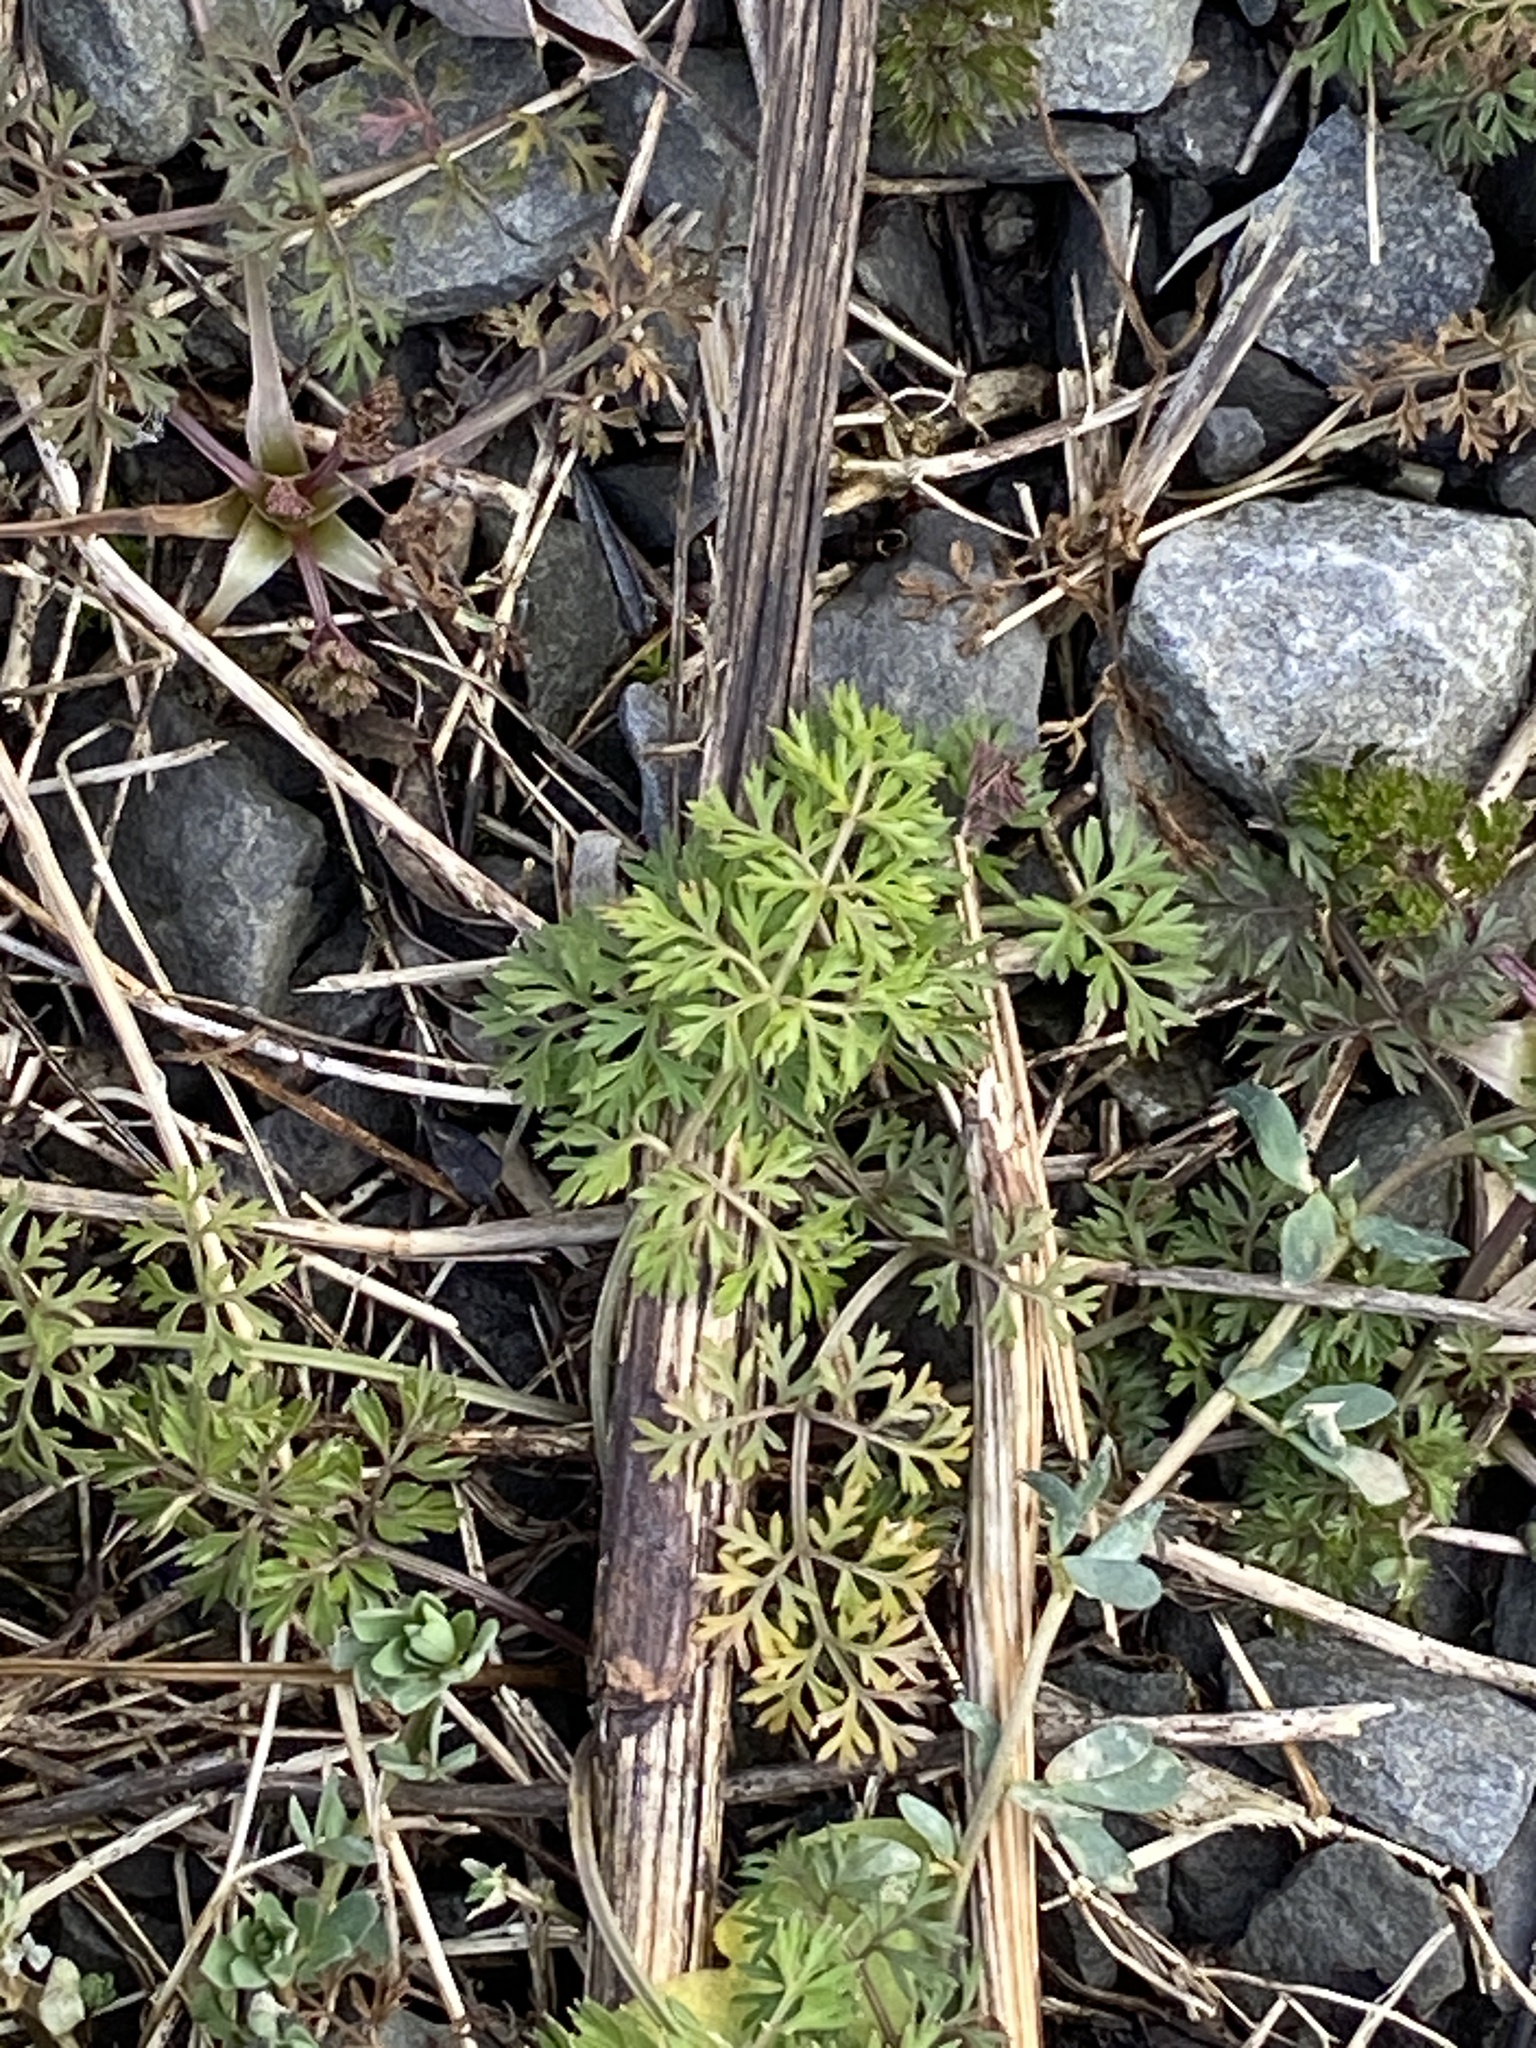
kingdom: Plantae
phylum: Tracheophyta
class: Magnoliopsida
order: Apiales
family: Apiaceae
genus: Daucus
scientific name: Daucus carota
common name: Wild carrot
